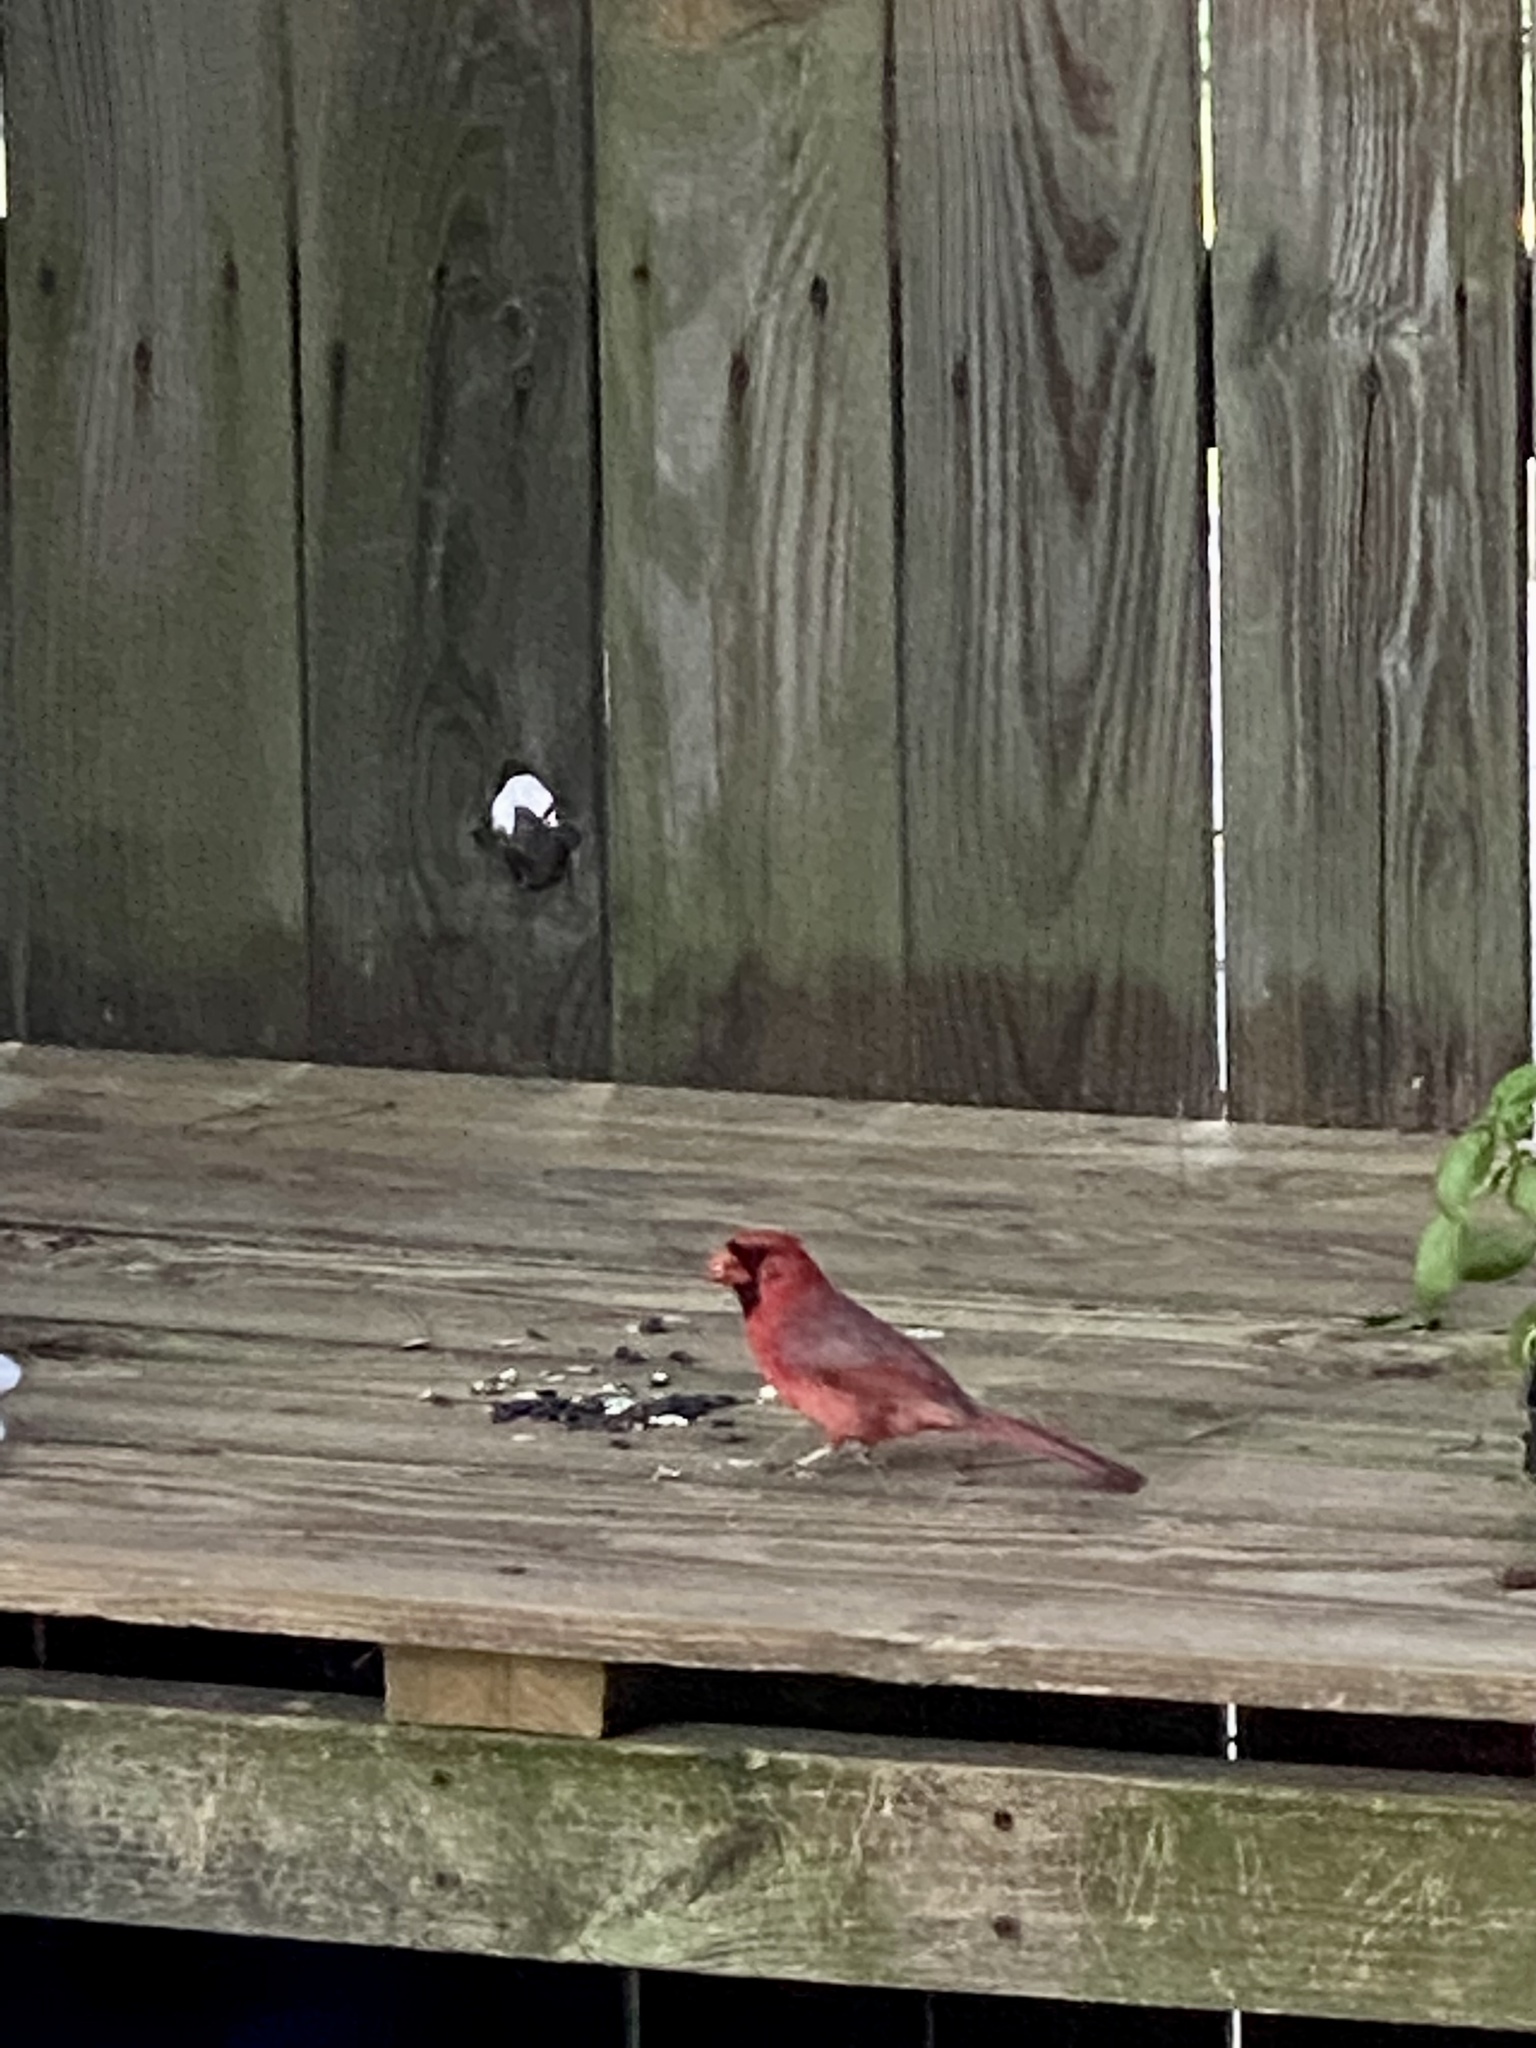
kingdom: Animalia
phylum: Chordata
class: Aves
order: Passeriformes
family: Cardinalidae
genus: Cardinalis
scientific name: Cardinalis cardinalis
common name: Northern cardinal
